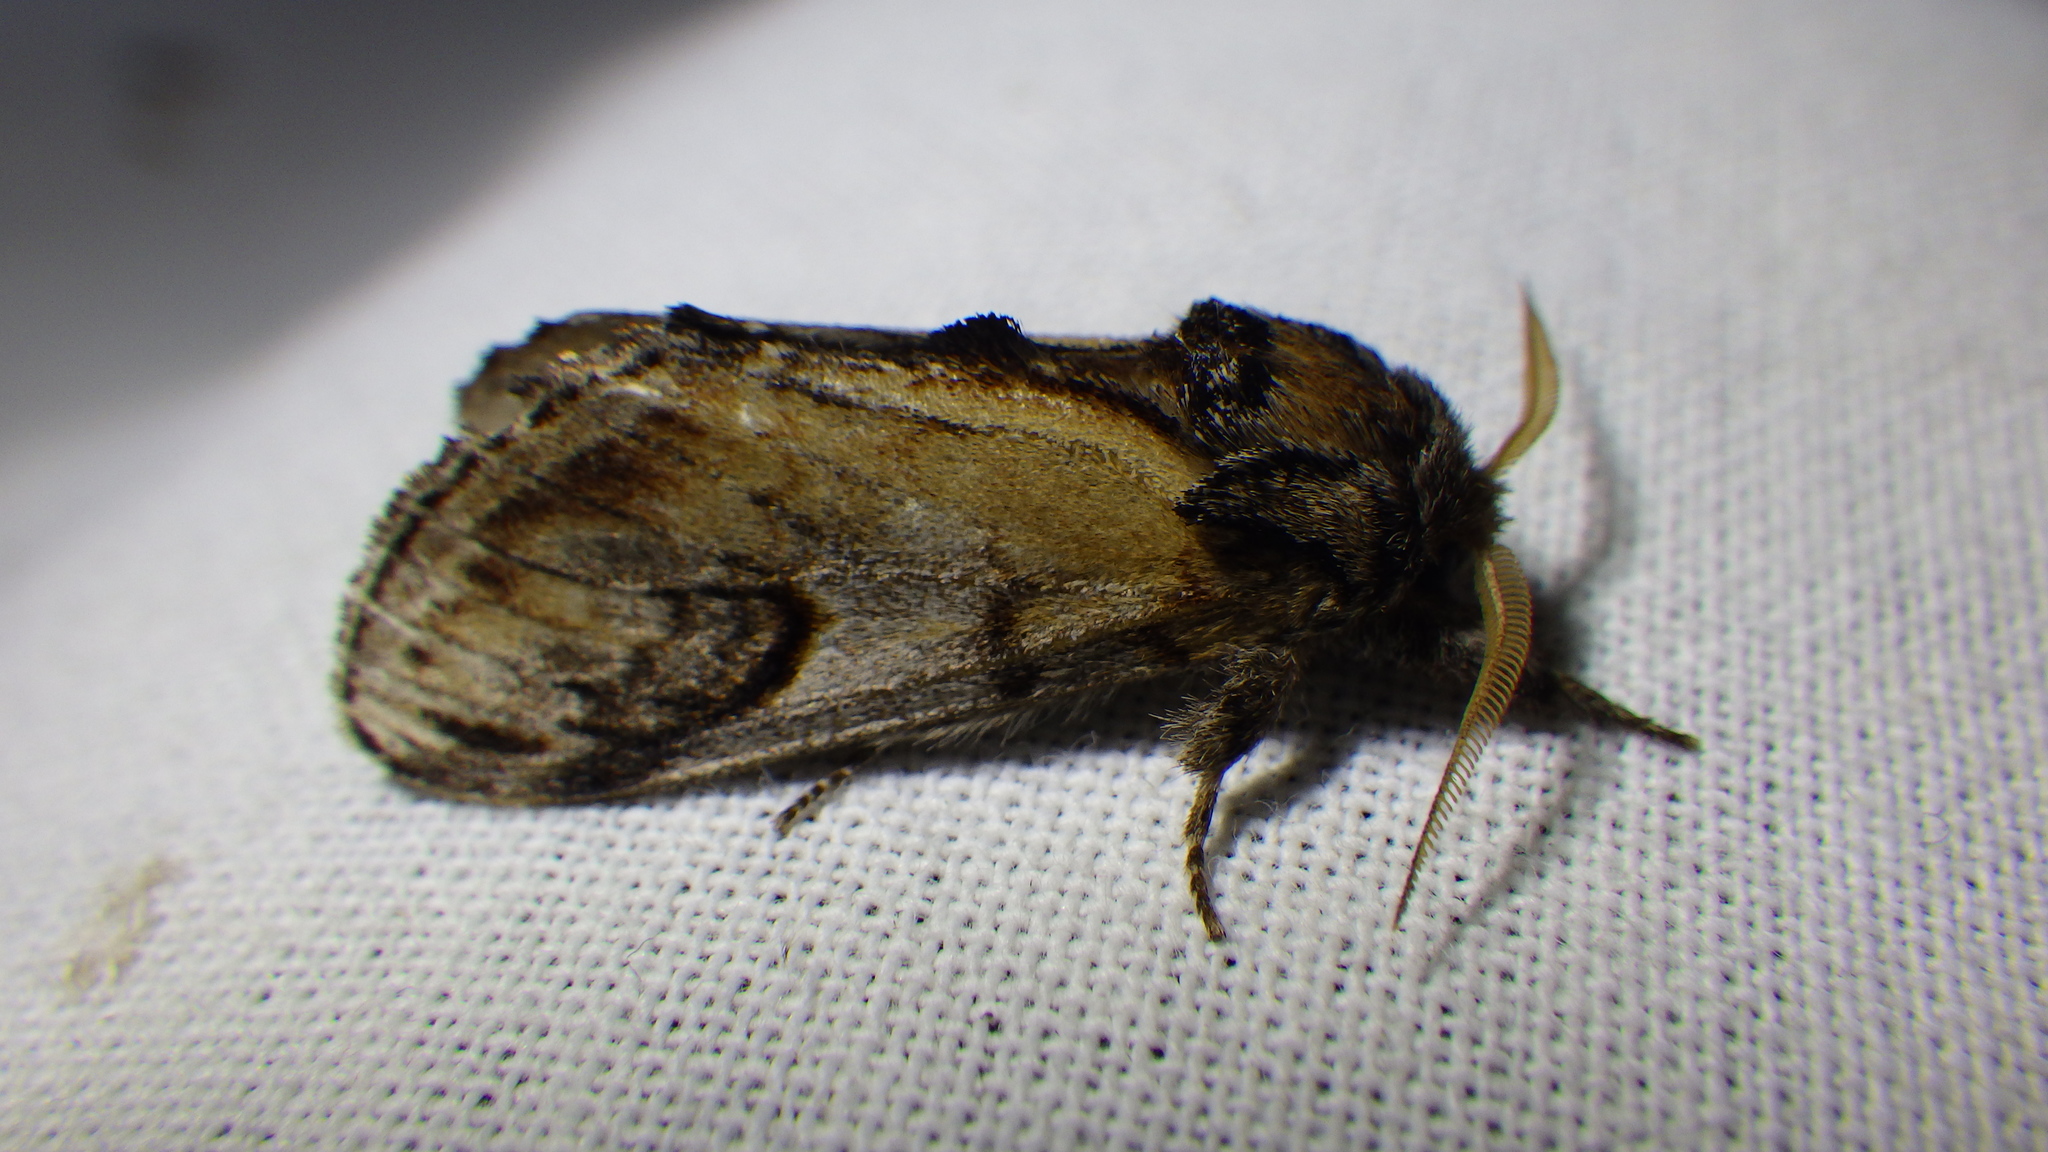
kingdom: Animalia
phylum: Arthropoda
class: Insecta
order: Lepidoptera
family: Notodontidae
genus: Notodonta
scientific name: Notodonta ziczac
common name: Pebble prominent
